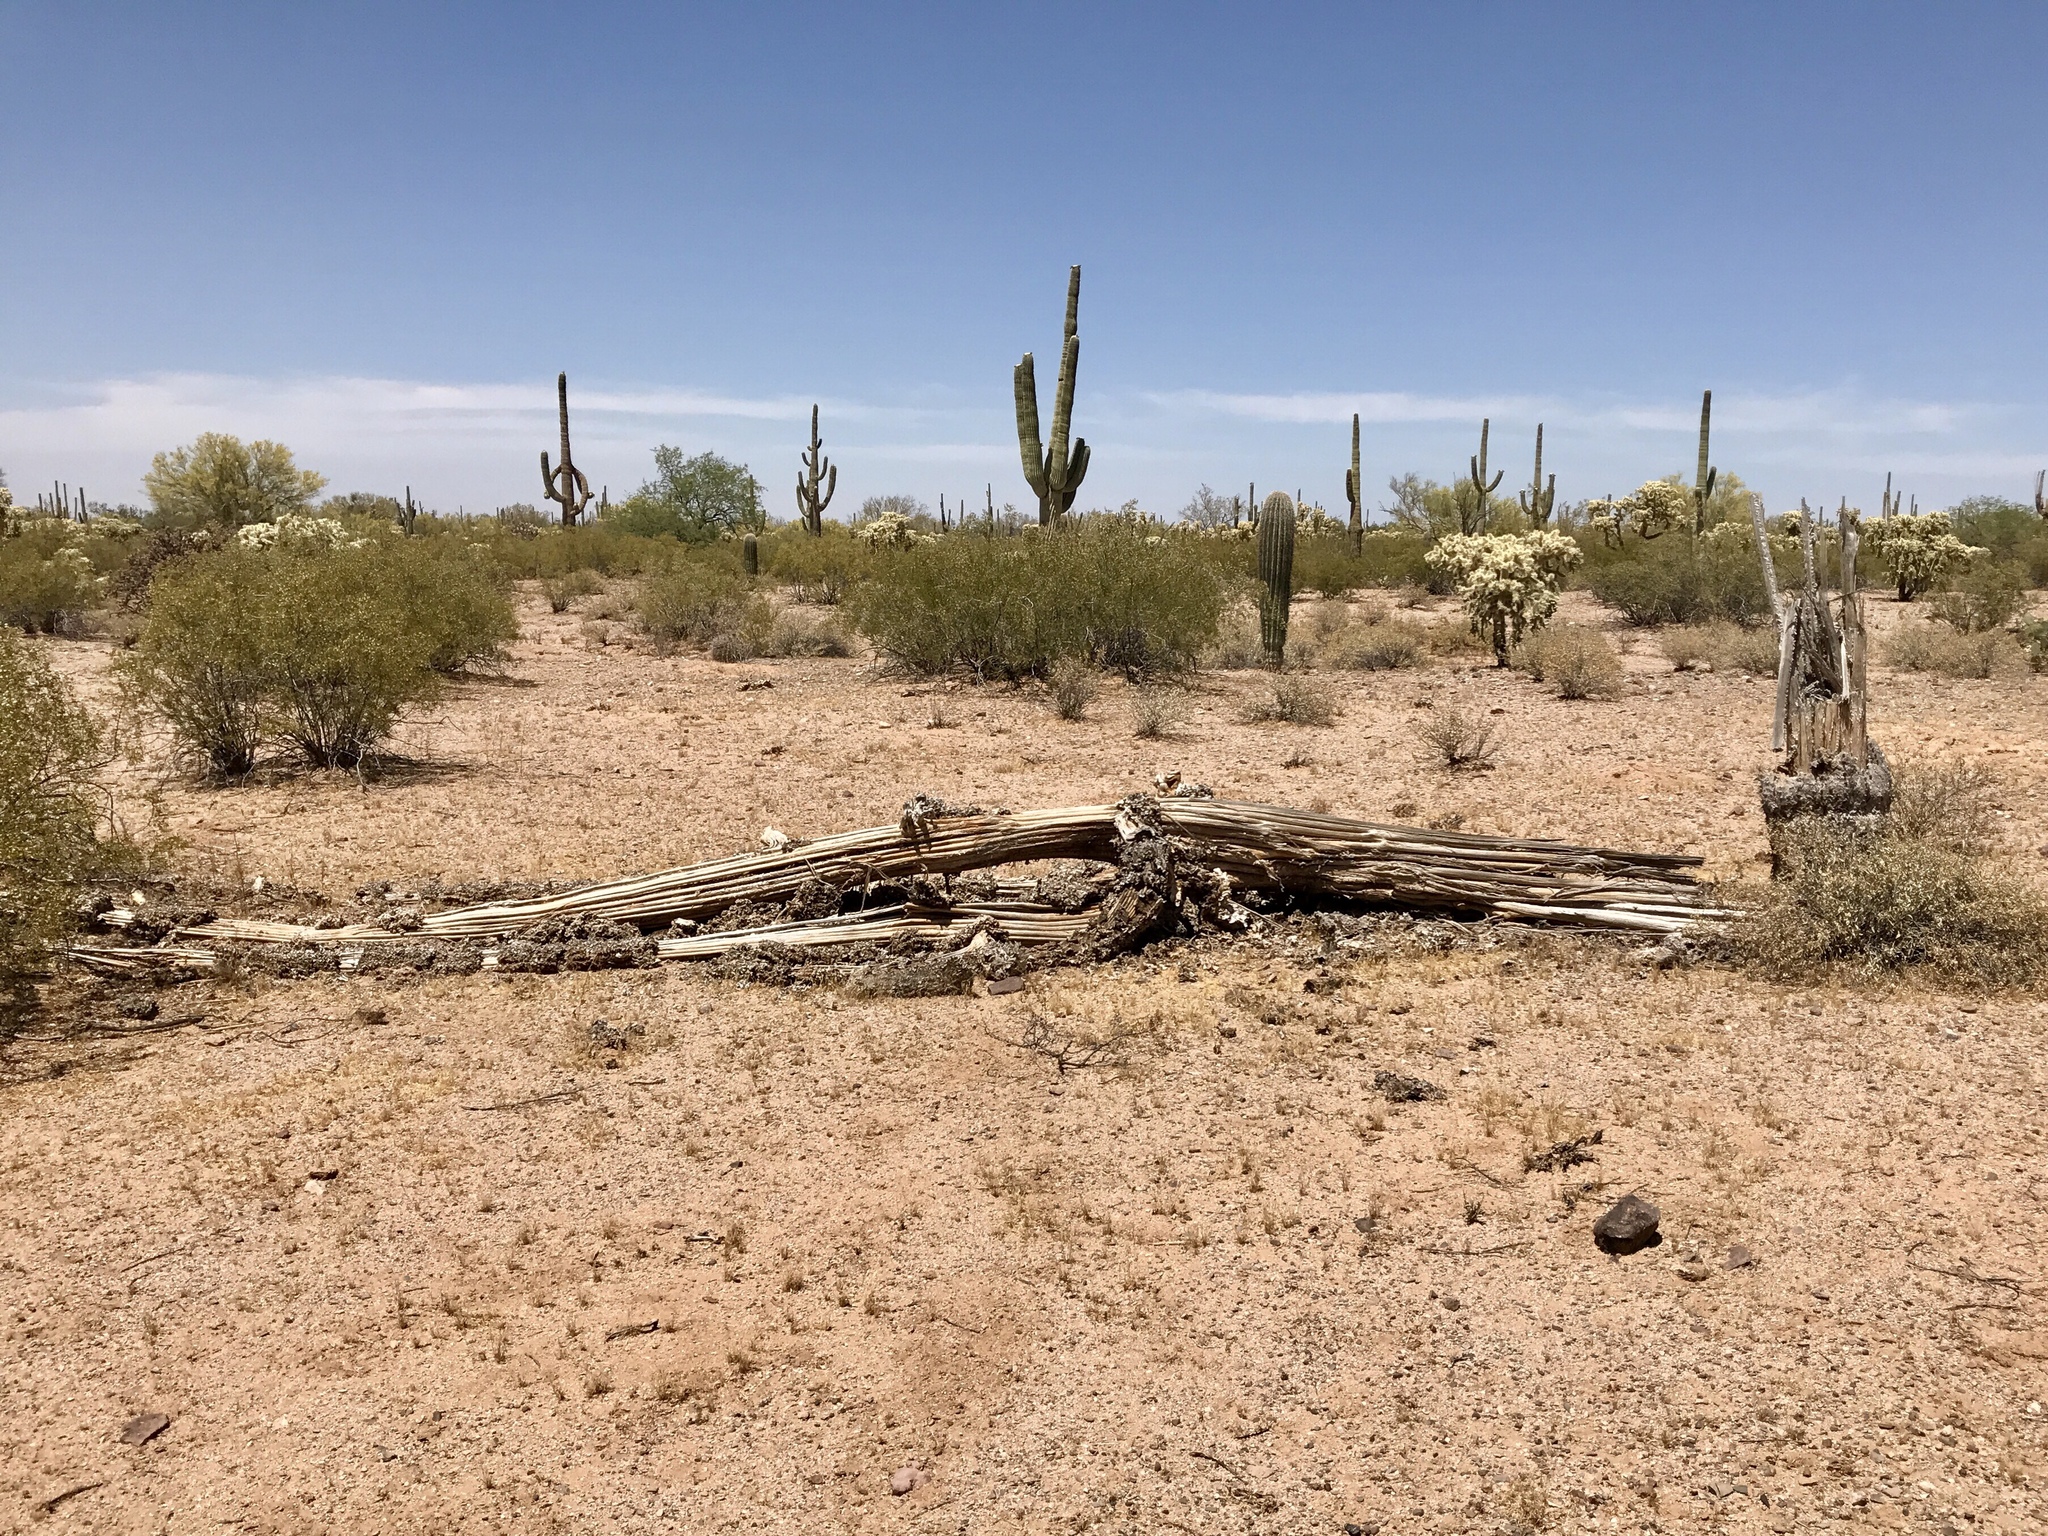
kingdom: Plantae
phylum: Tracheophyta
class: Magnoliopsida
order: Caryophyllales
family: Cactaceae
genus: Carnegiea
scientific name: Carnegiea gigantea
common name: Saguaro
